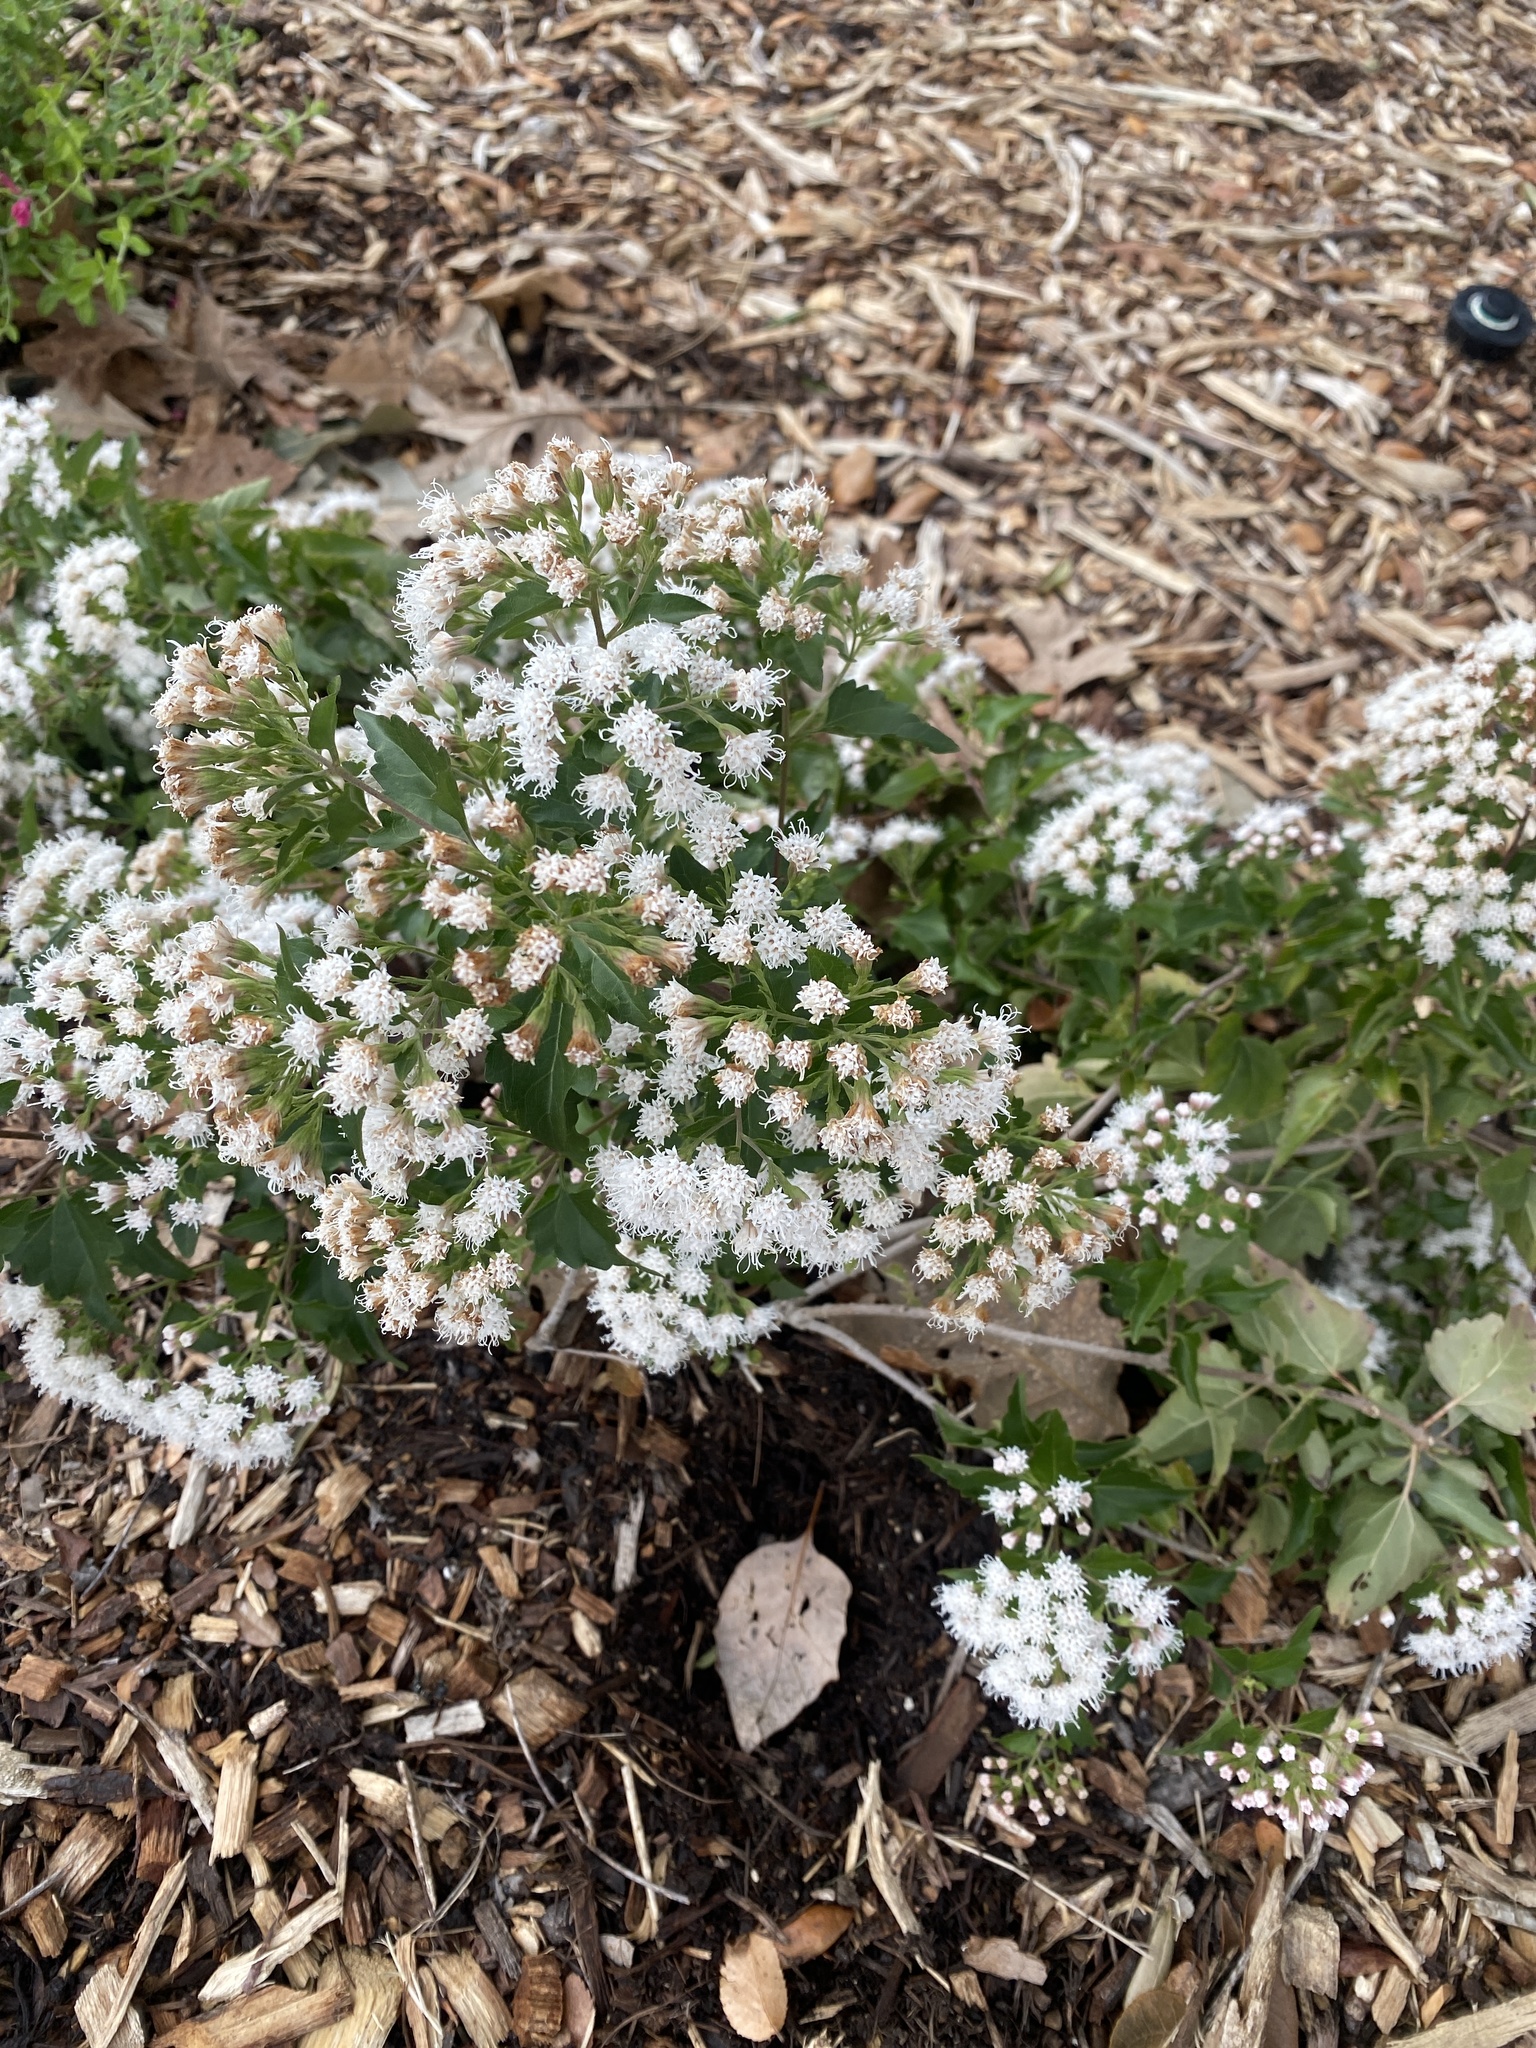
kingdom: Plantae
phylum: Tracheophyta
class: Magnoliopsida
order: Asterales
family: Asteraceae
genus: Ageratina
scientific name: Ageratina havanensis
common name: Havana snakeroot
